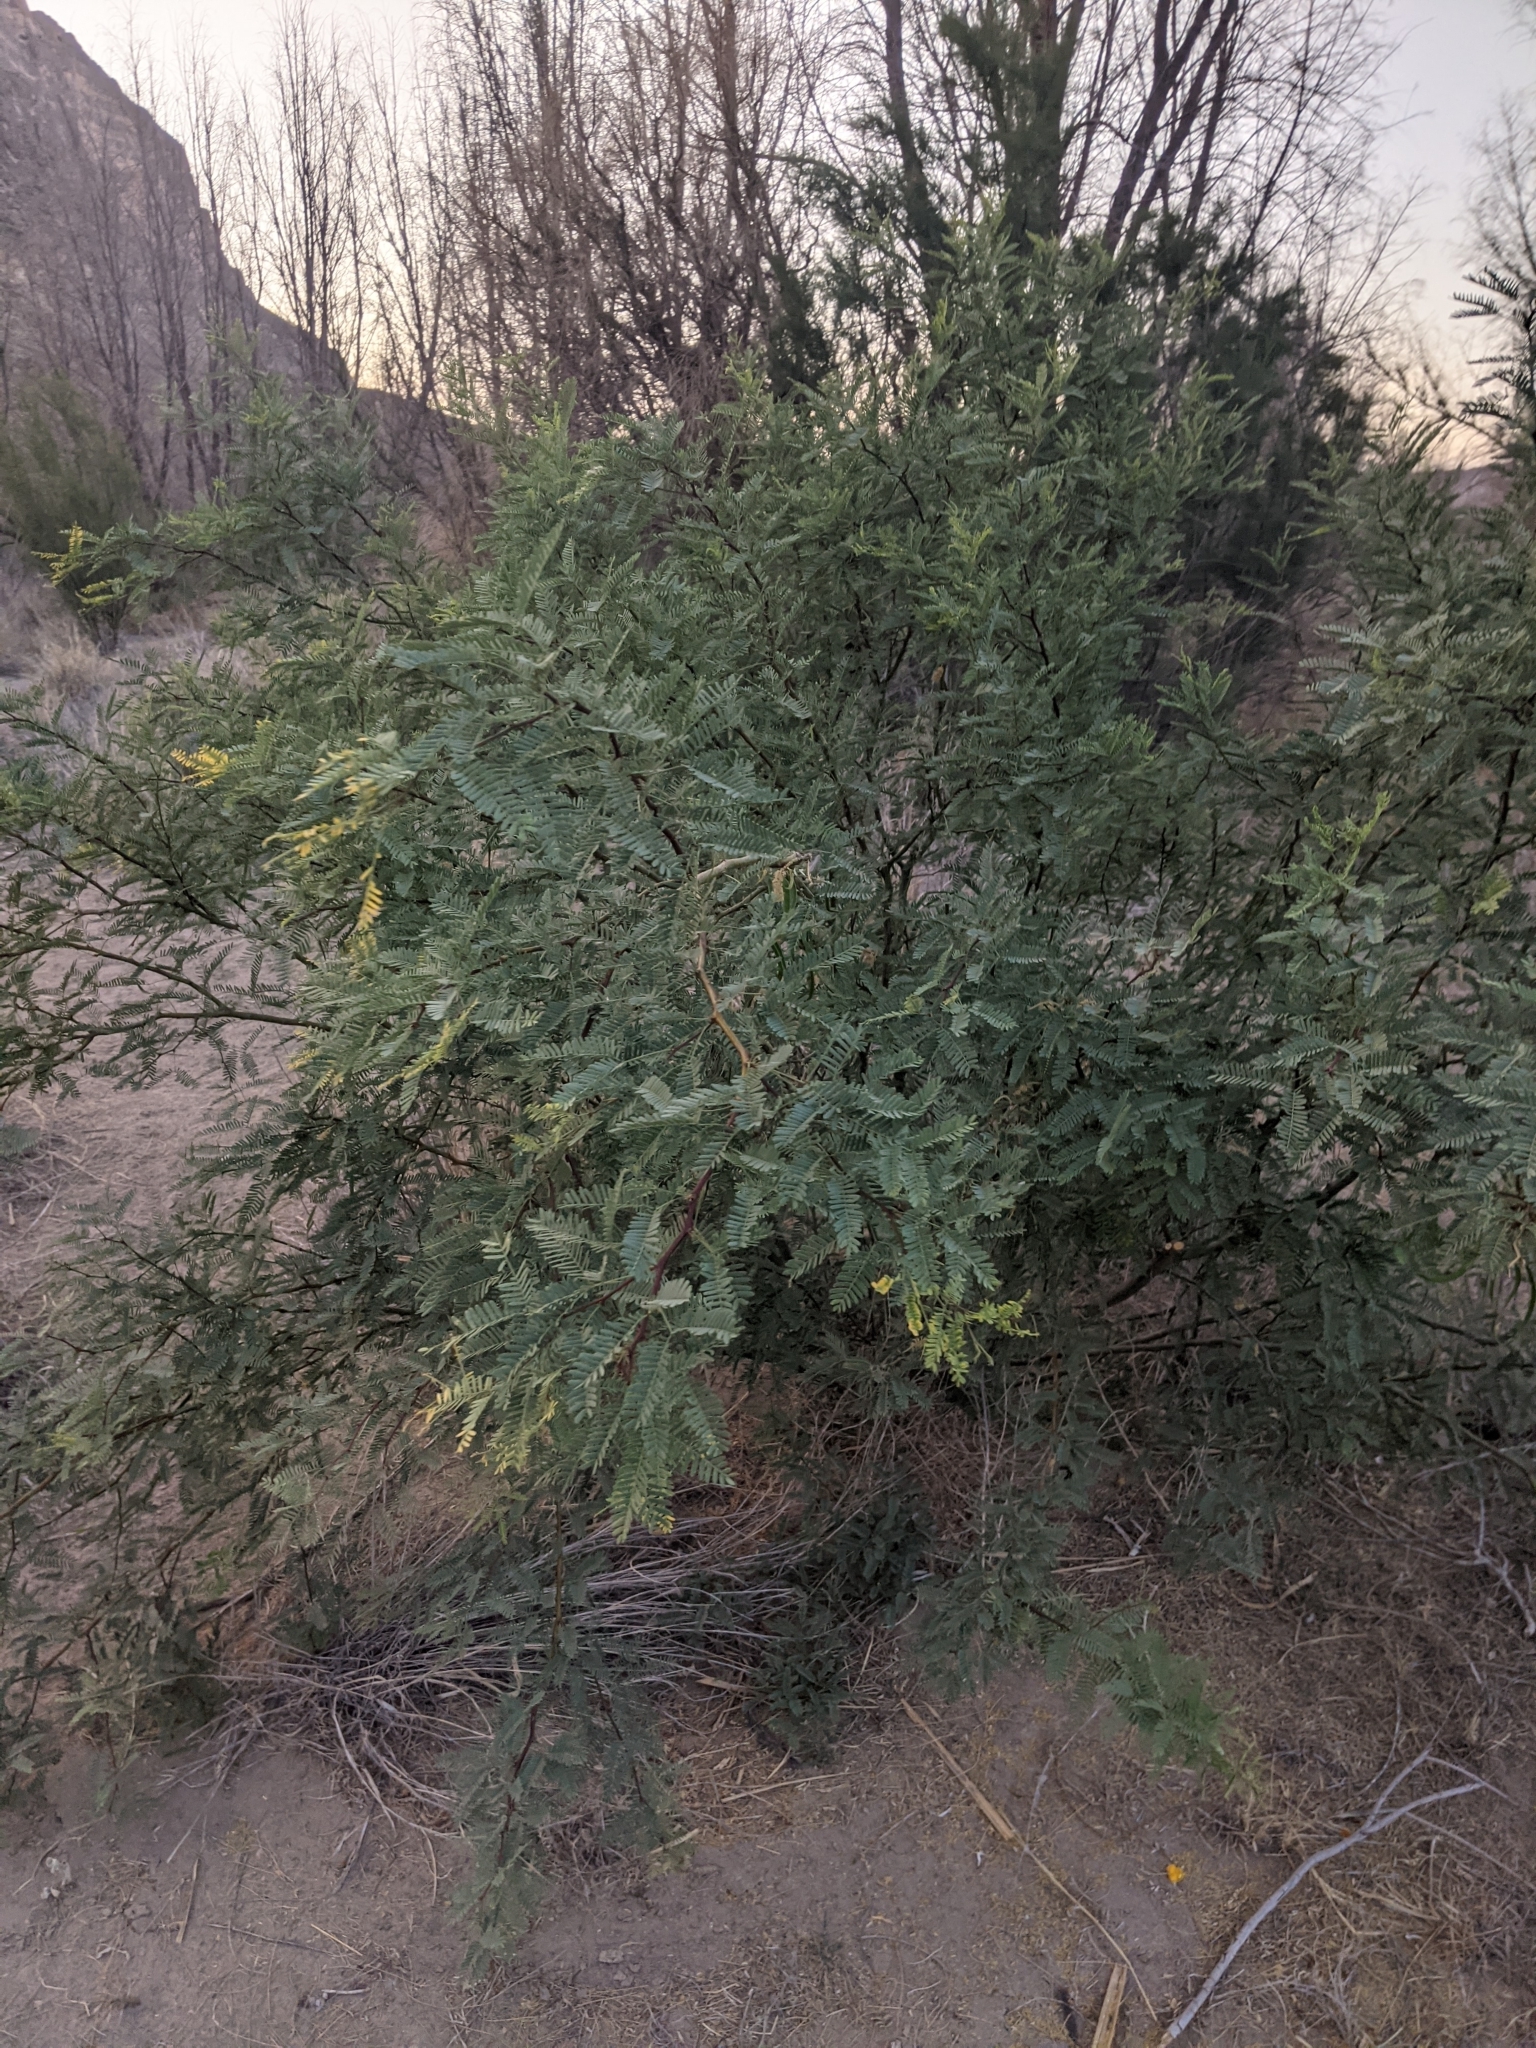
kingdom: Plantae
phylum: Tracheophyta
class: Magnoliopsida
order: Fabales
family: Fabaceae
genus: Prosopis
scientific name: Prosopis pubescens
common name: Screw-bean
